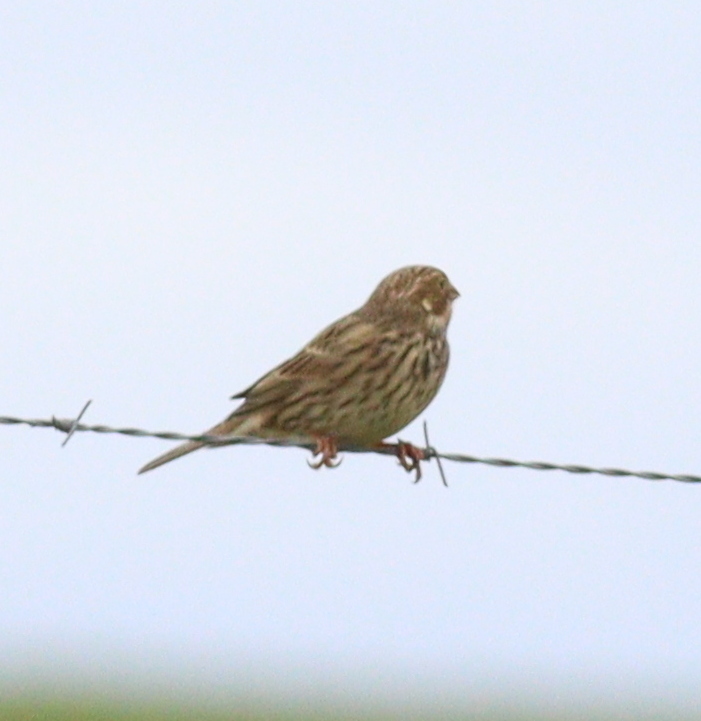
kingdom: Animalia
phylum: Chordata
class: Aves
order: Passeriformes
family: Emberizidae
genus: Emberiza
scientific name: Emberiza calandra
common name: Corn bunting
